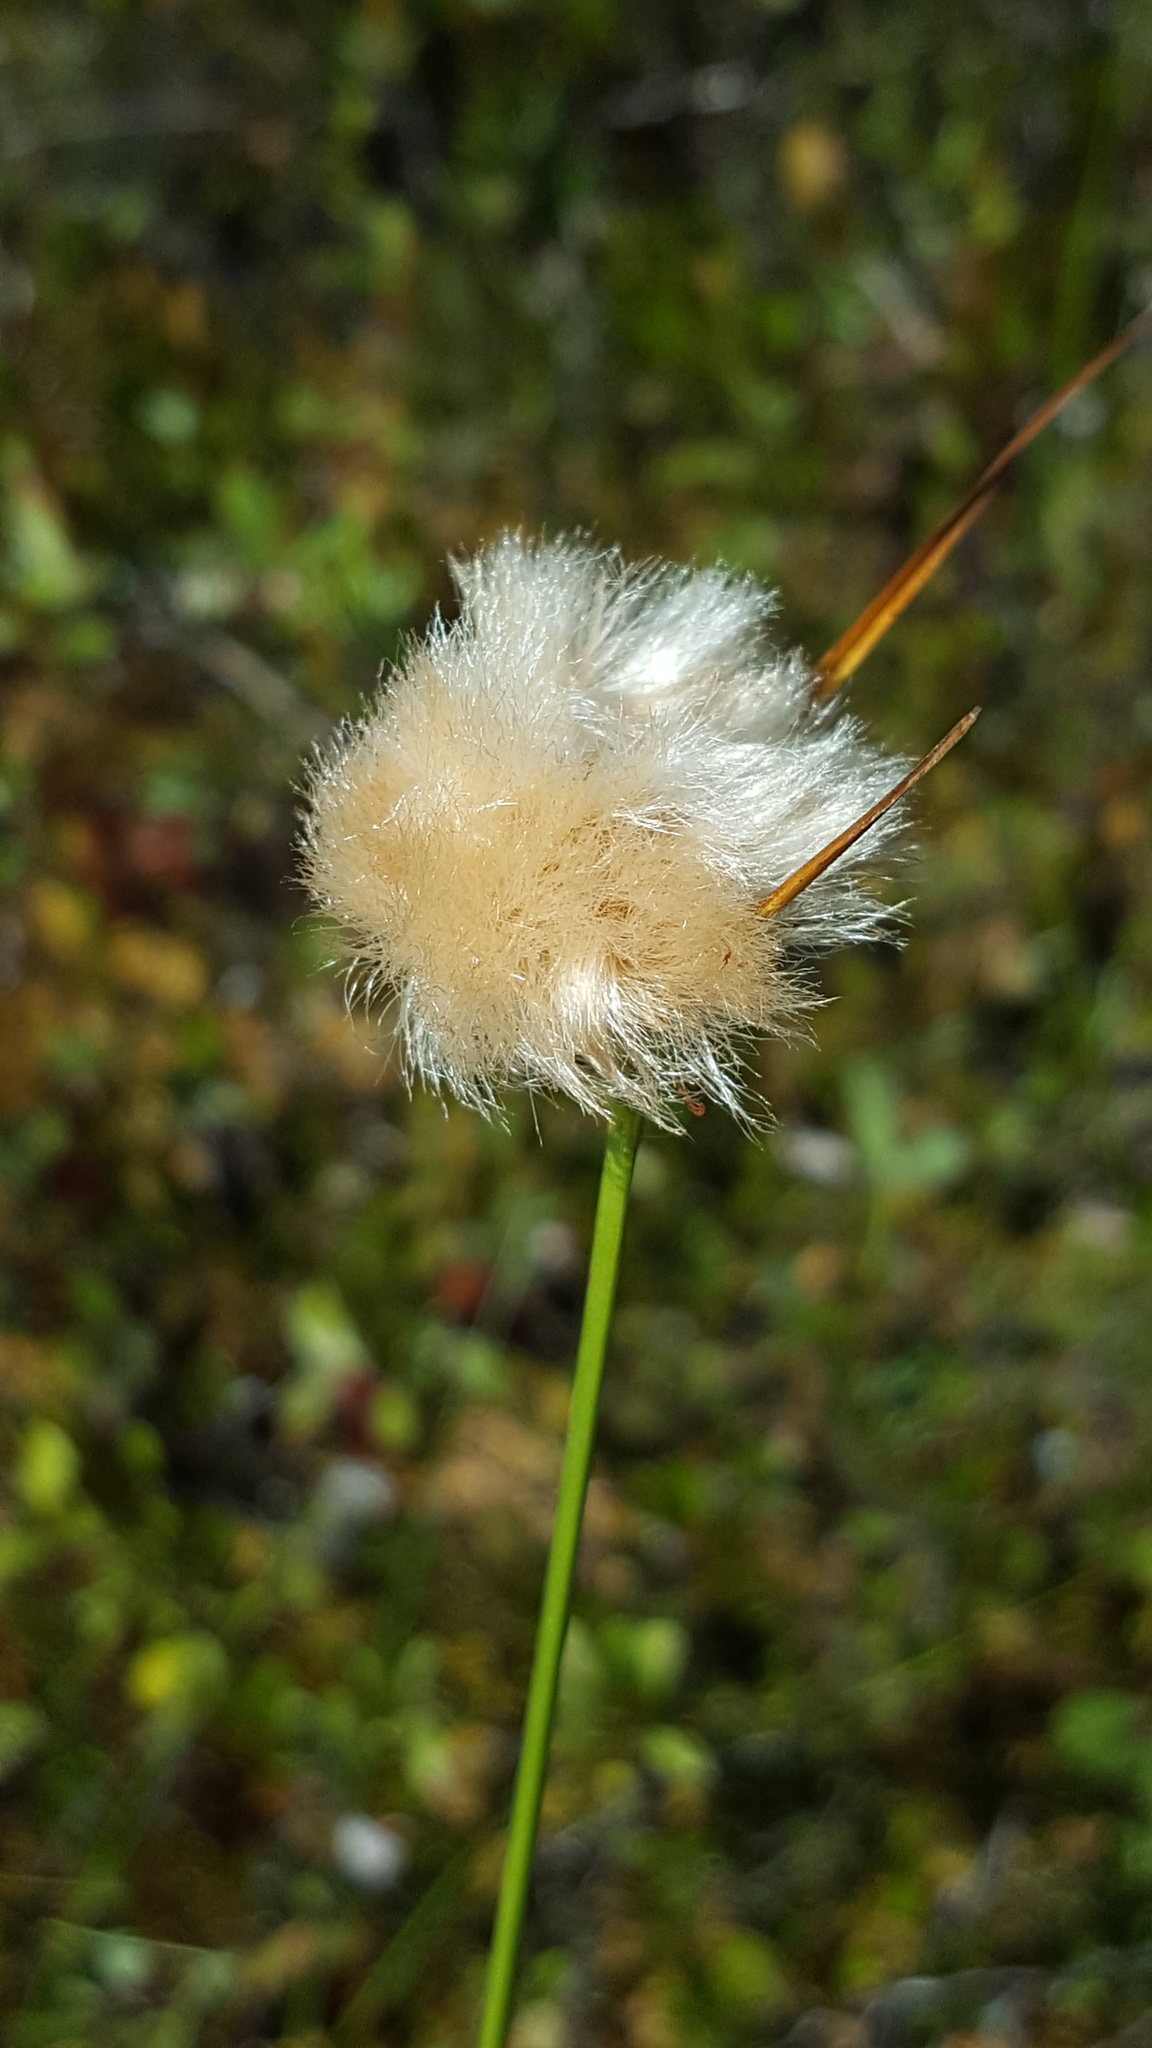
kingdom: Plantae
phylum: Tracheophyta
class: Liliopsida
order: Poales
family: Cyperaceae
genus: Eriophorum
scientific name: Eriophorum virginicum
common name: Tawny cottongrass
